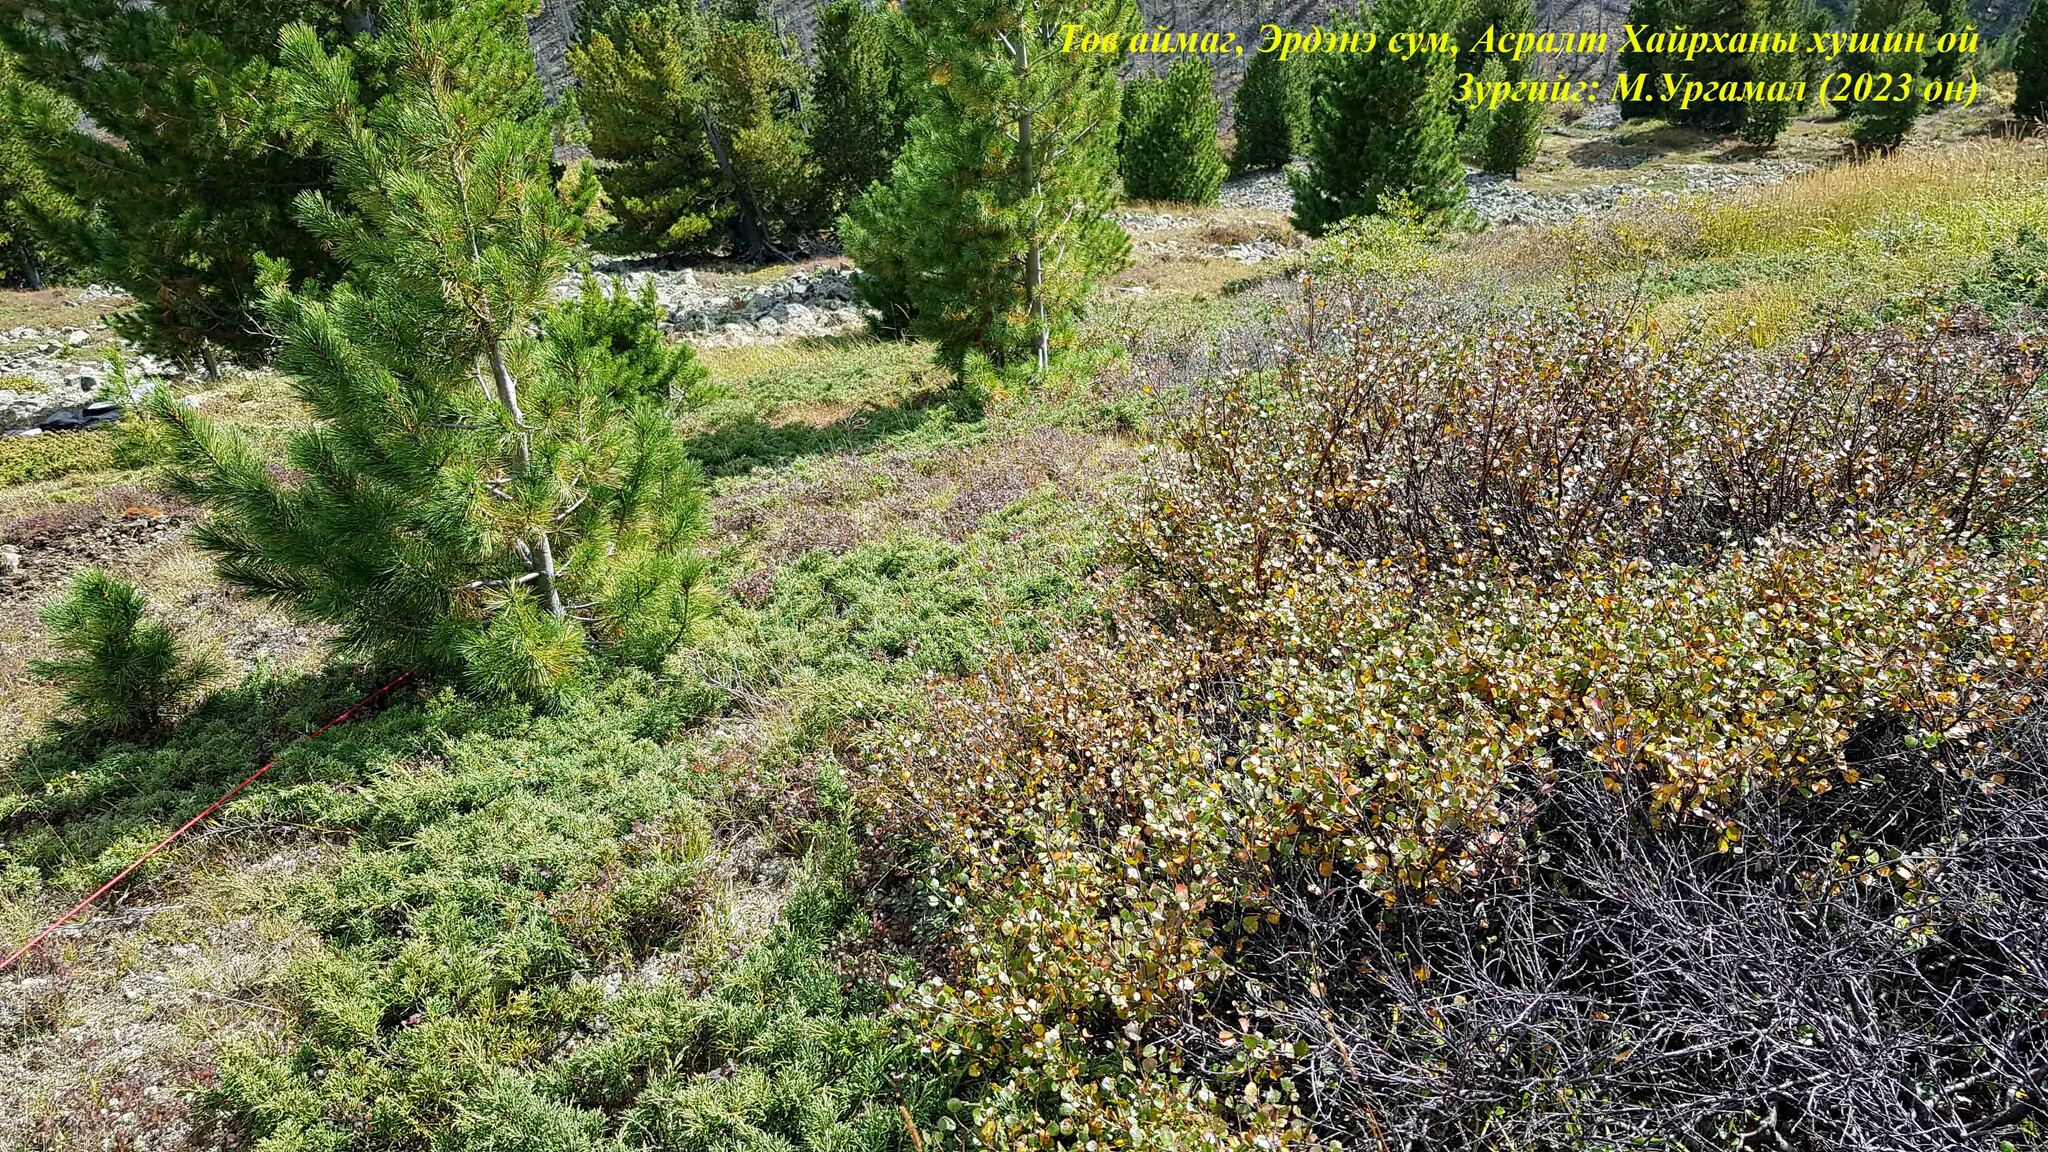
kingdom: Plantae
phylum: Tracheophyta
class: Pinopsida
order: Pinales
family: Cupressaceae
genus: Juniperus
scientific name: Juniperus communis
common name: Common juniper
